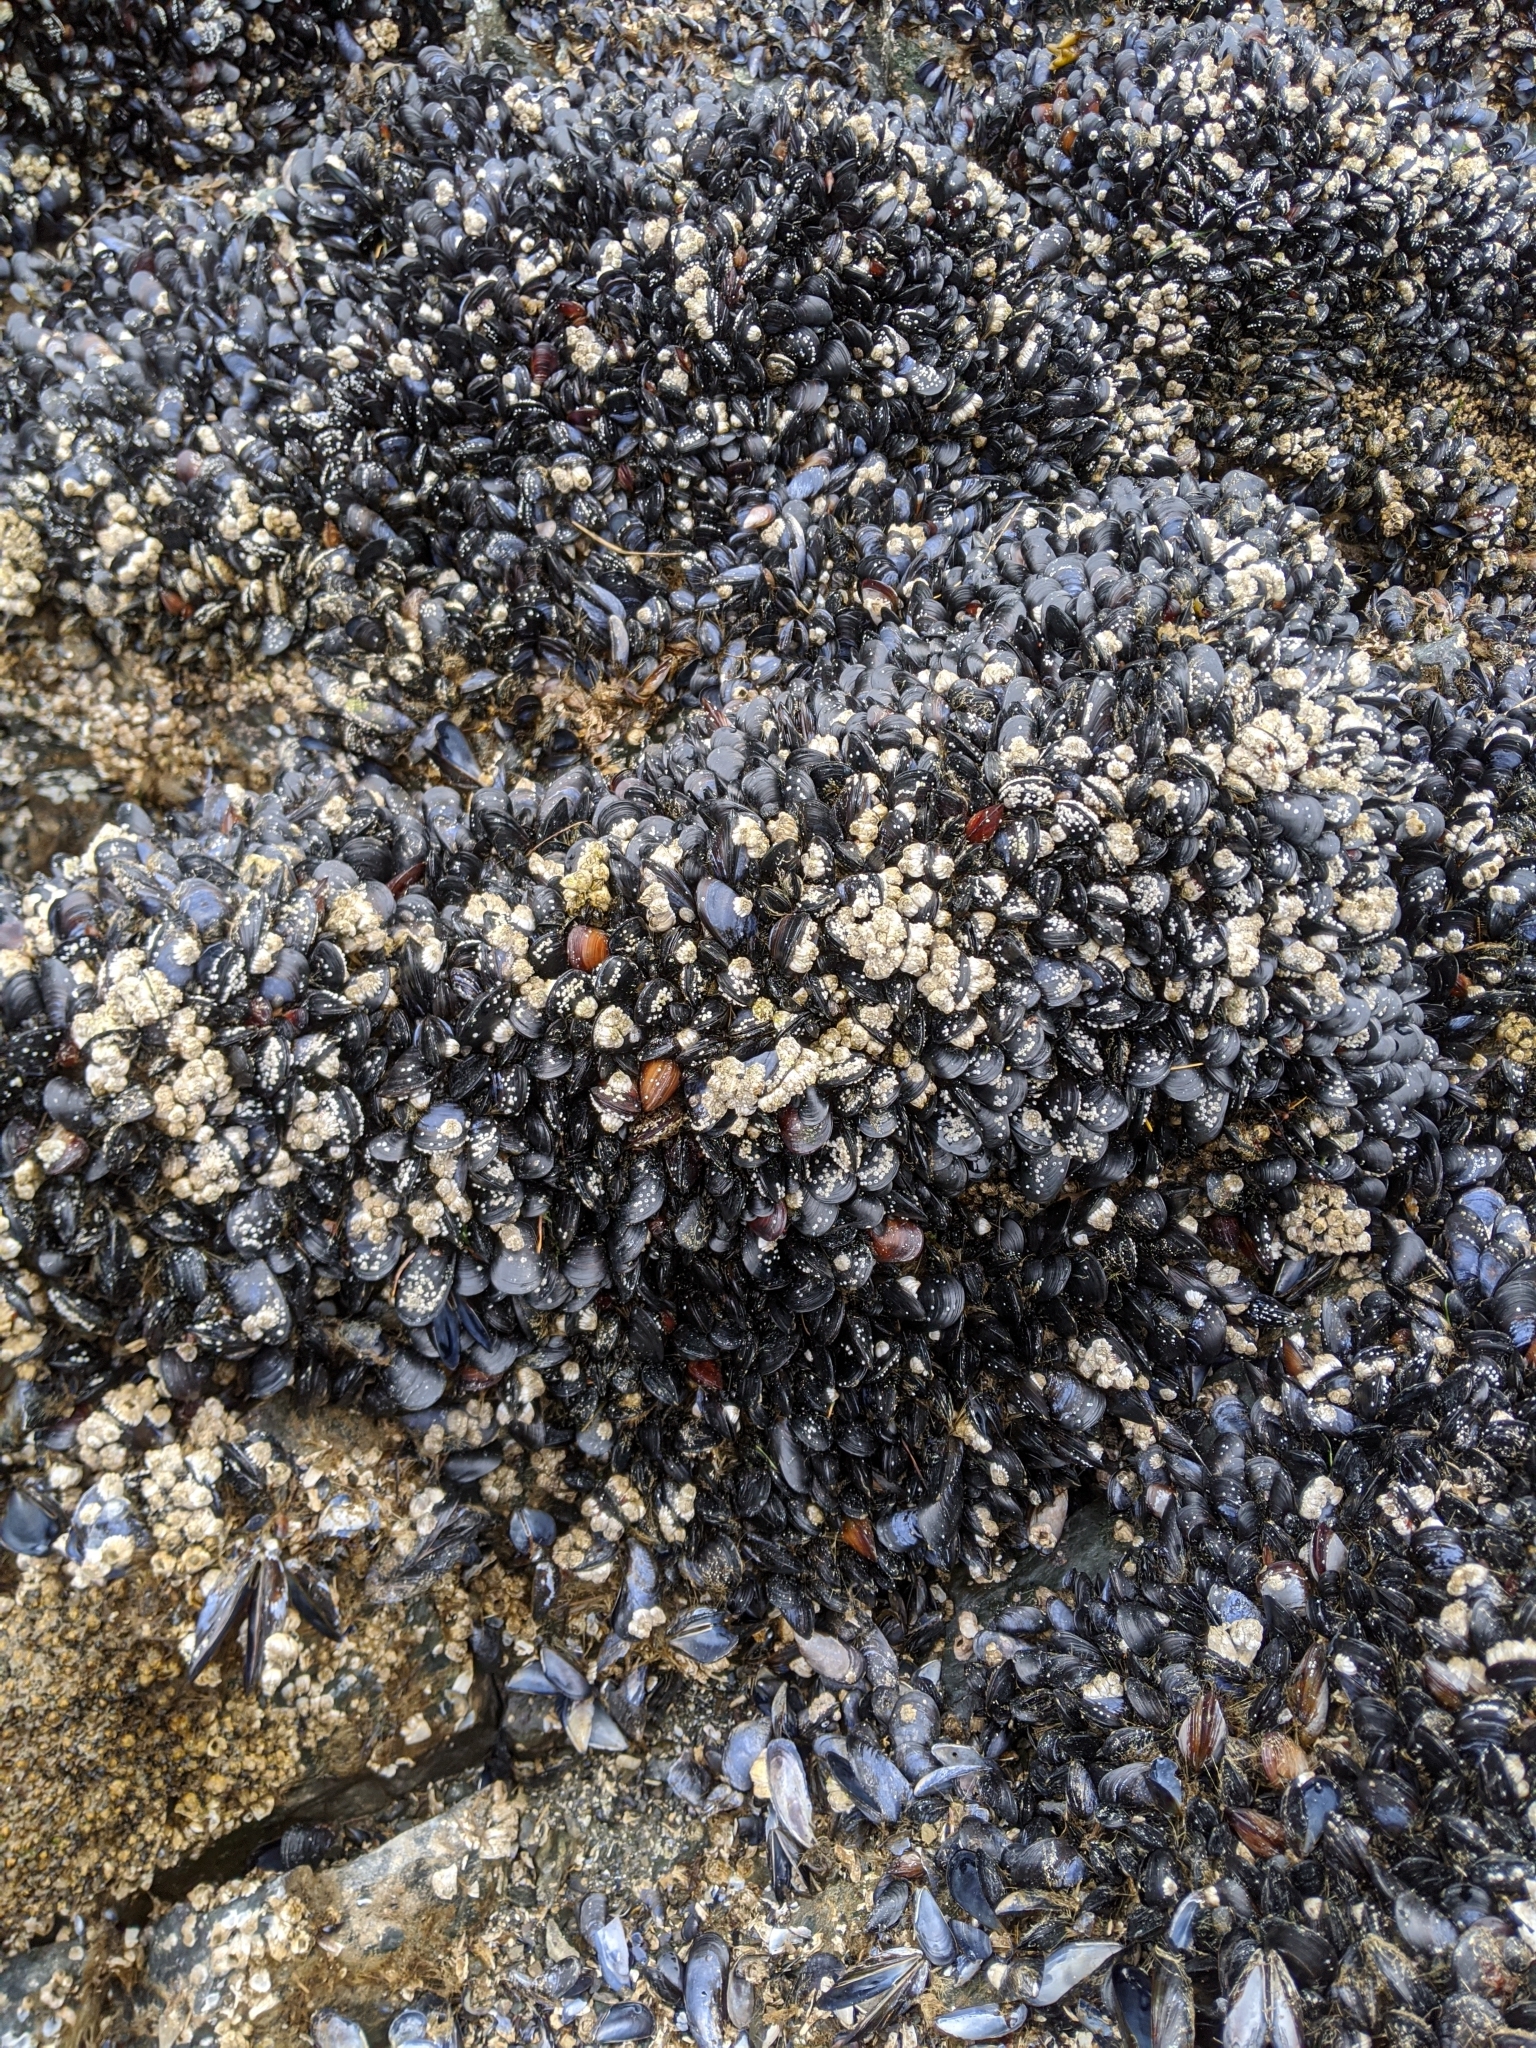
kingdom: Animalia
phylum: Mollusca
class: Bivalvia
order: Mytilida
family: Mytilidae
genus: Mytilus
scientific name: Mytilus
